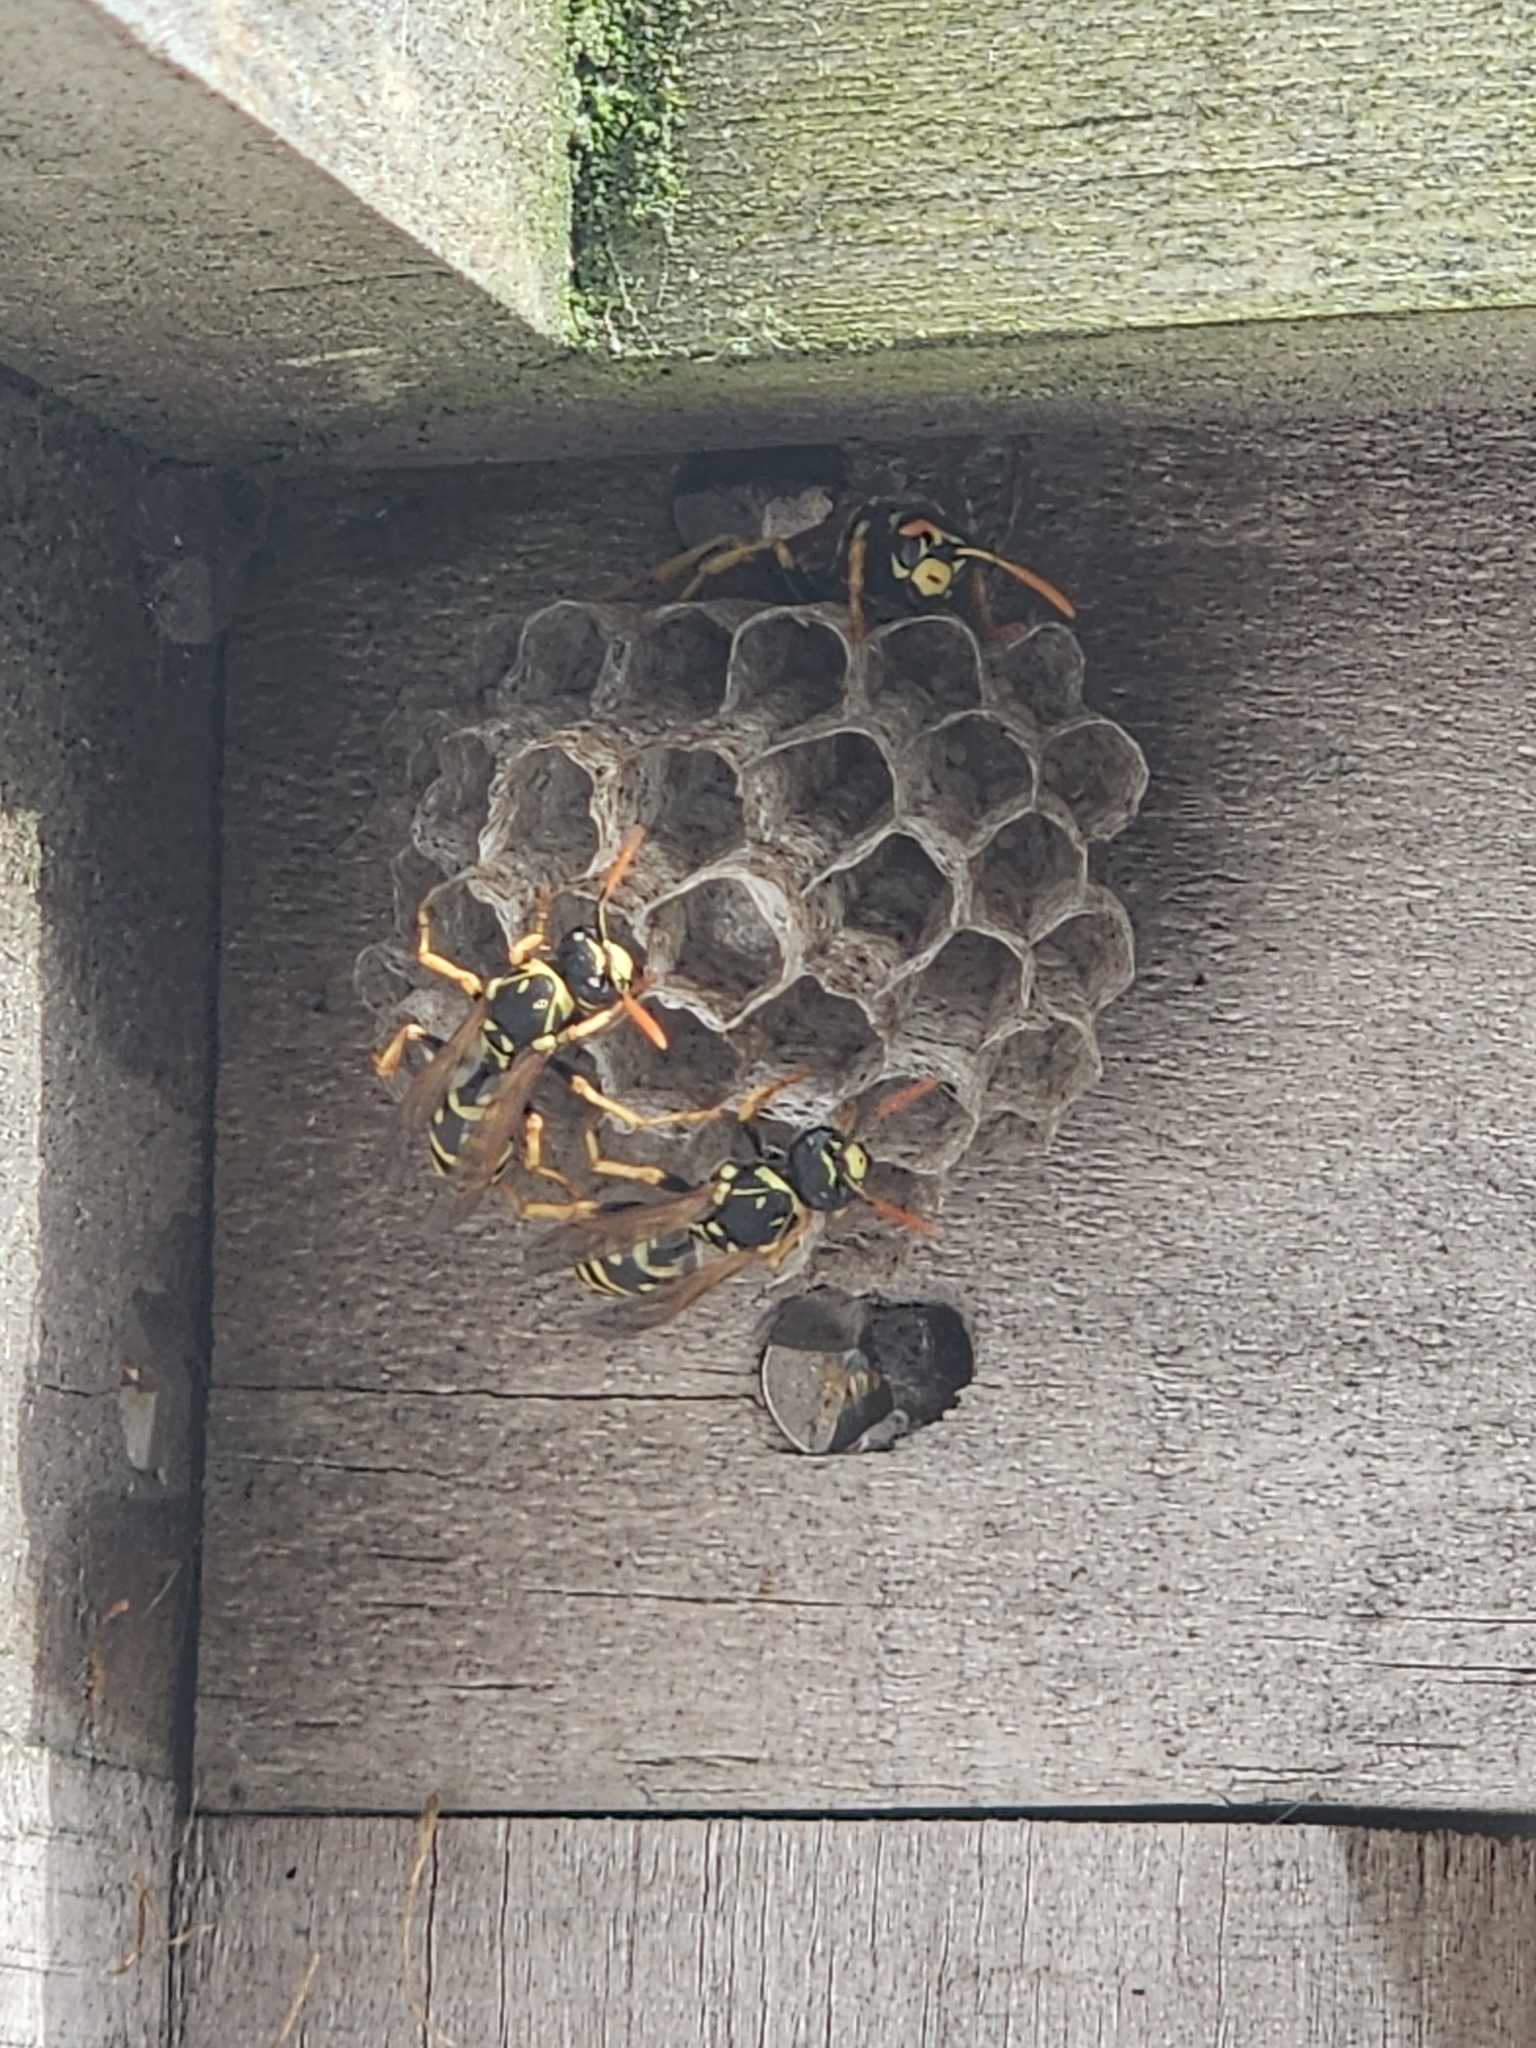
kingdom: Animalia
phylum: Arthropoda
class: Insecta
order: Hymenoptera
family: Eumenidae
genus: Polistes
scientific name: Polistes dominula
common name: Paper wasp
